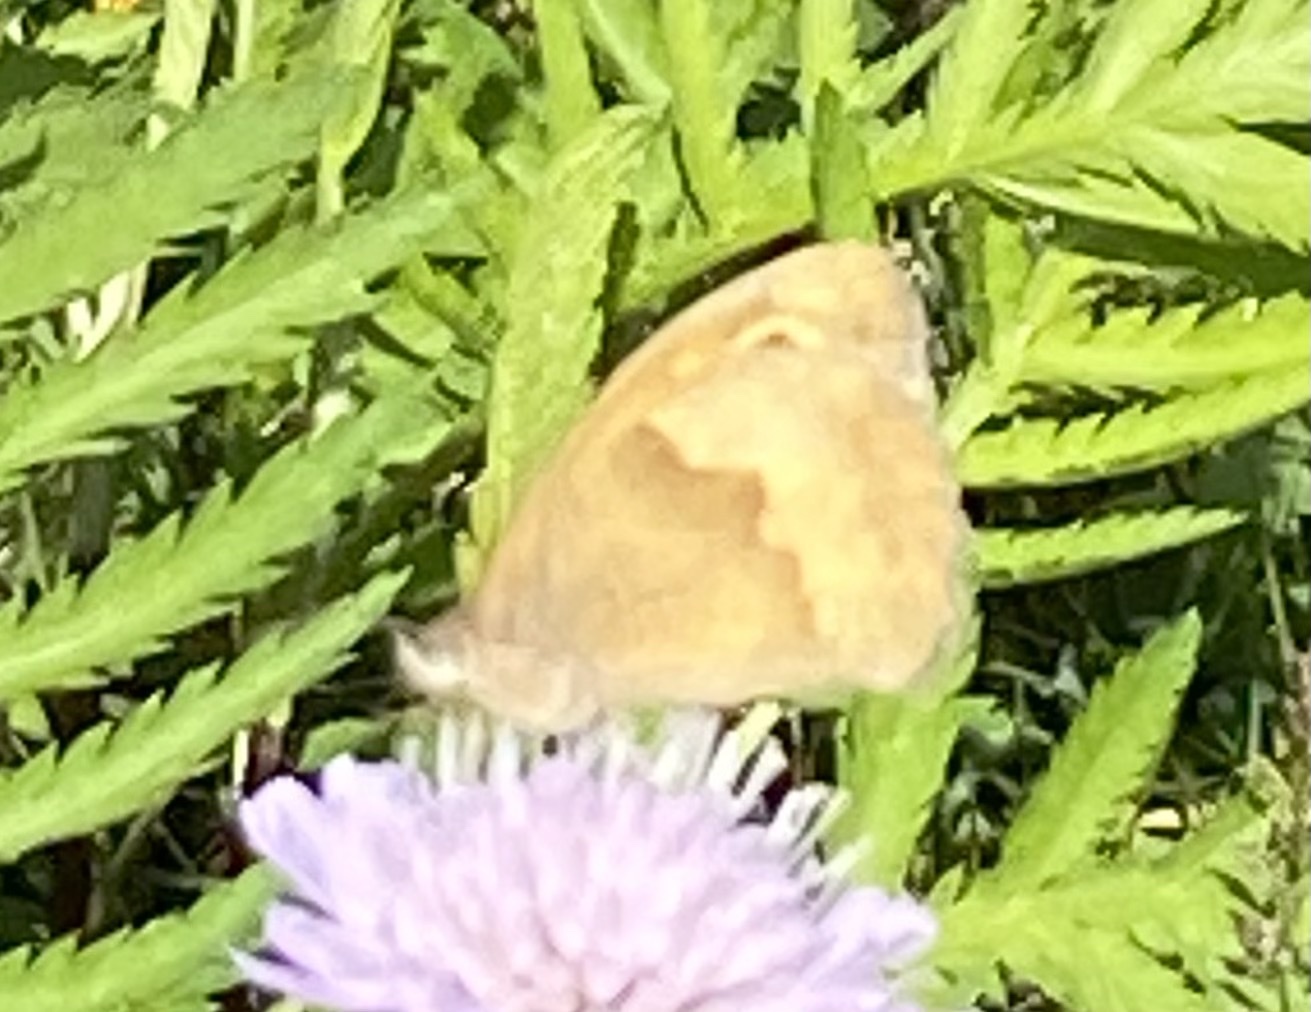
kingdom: Animalia
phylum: Arthropoda
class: Insecta
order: Lepidoptera
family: Nymphalidae
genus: Maniola
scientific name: Maniola jurtina
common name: Meadow brown
